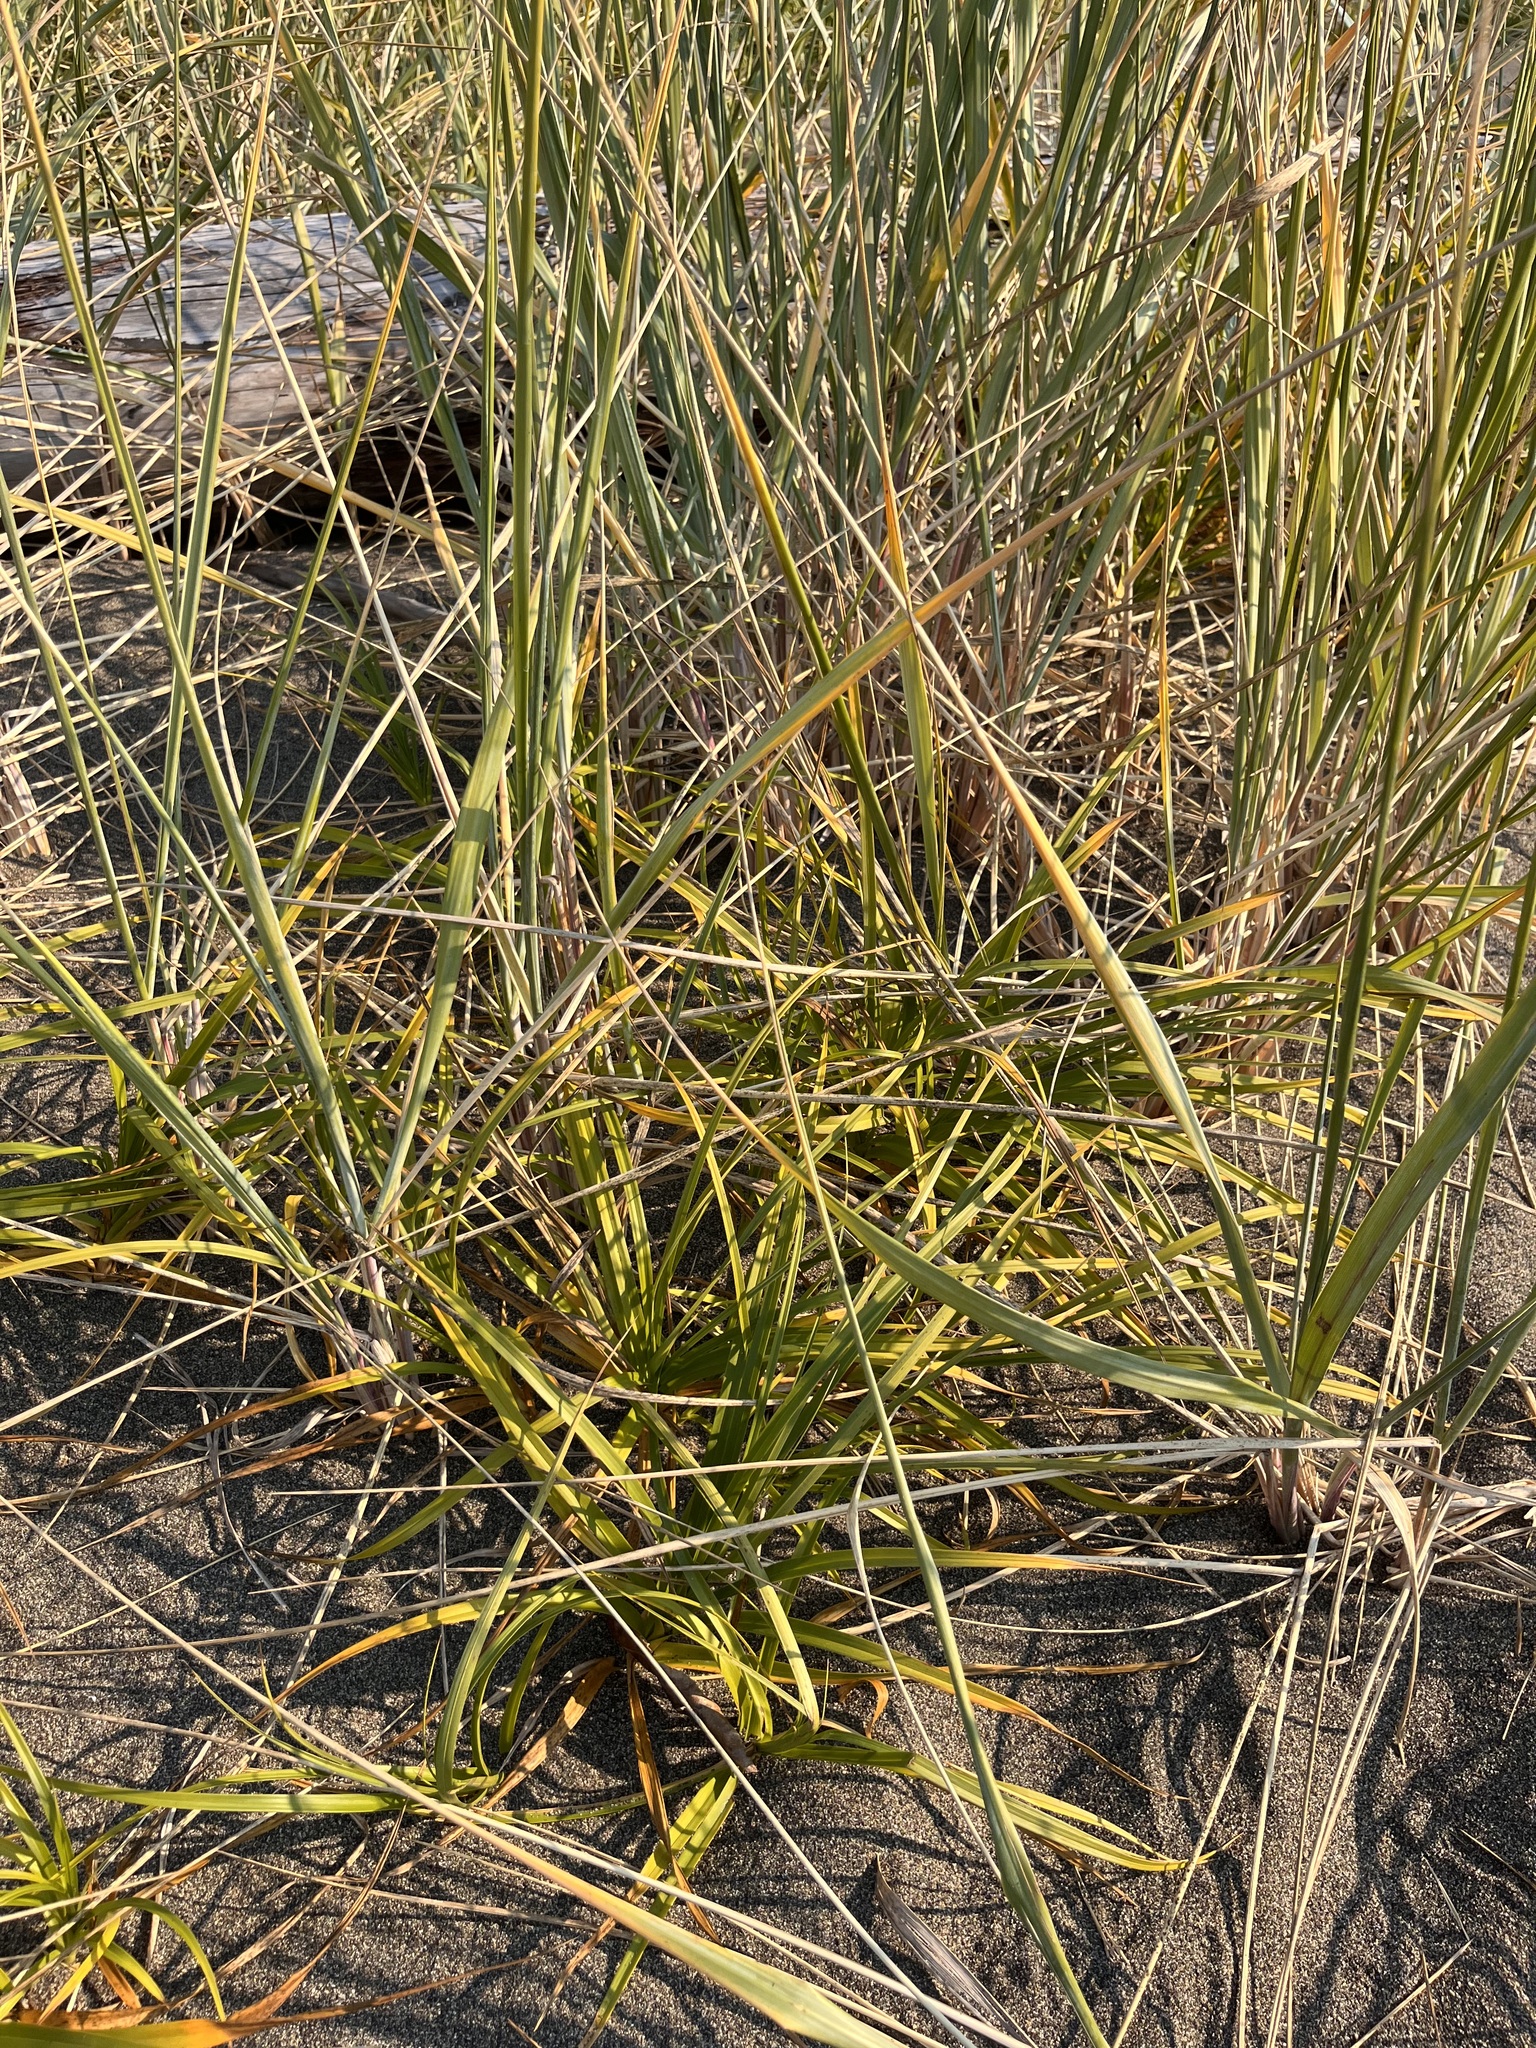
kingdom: Plantae
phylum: Tracheophyta
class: Liliopsida
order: Poales
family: Poaceae
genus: Leymus
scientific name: Leymus mollis
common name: American dune grass
